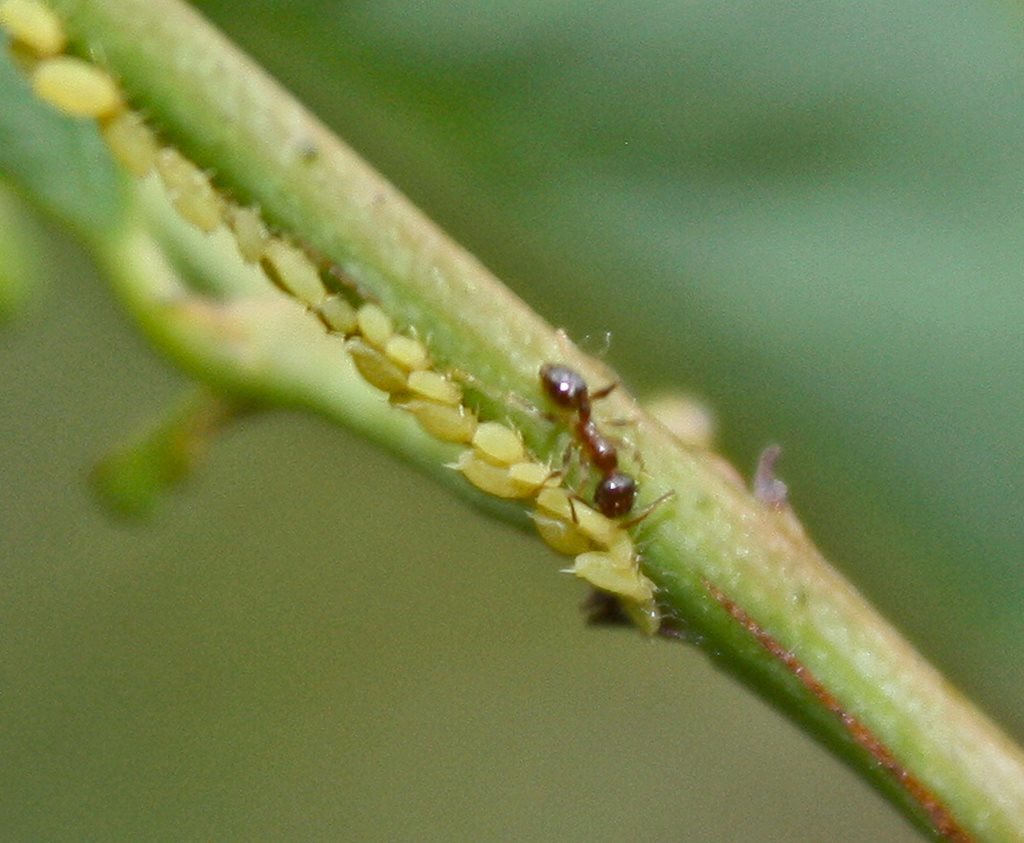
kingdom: Animalia
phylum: Arthropoda
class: Insecta
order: Hymenoptera
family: Formicidae
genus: Pheidole
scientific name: Pheidole megacephala
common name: Bigheaded ant
